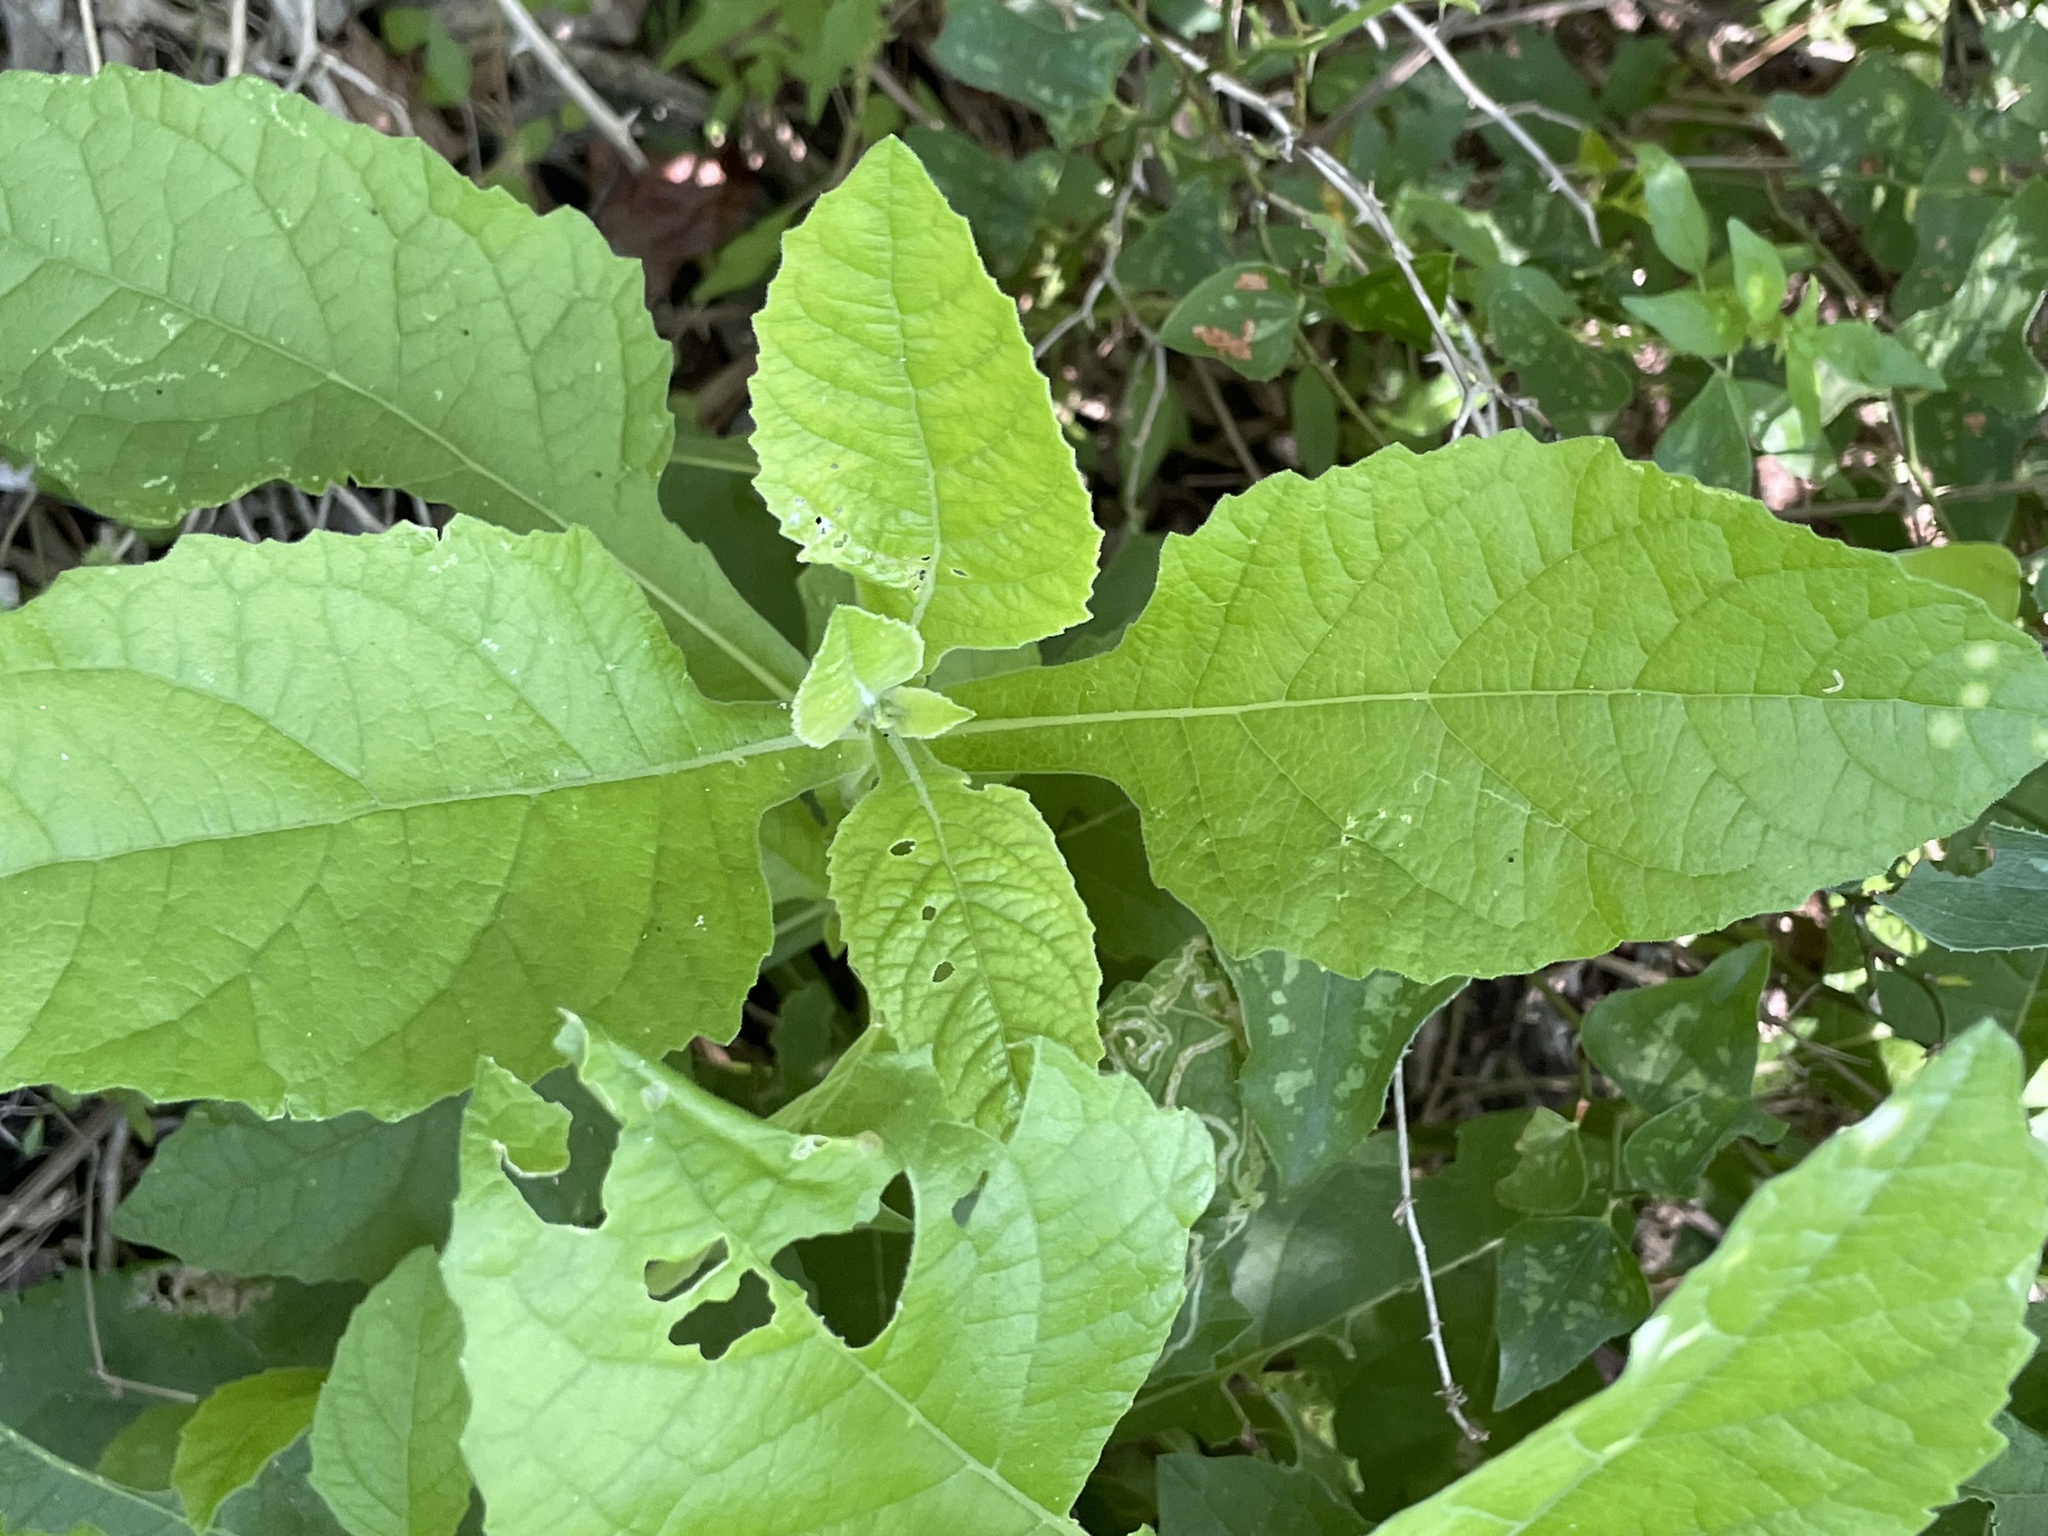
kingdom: Plantae
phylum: Tracheophyta
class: Magnoliopsida
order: Asterales
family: Asteraceae
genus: Verbesina
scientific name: Verbesina microptera
